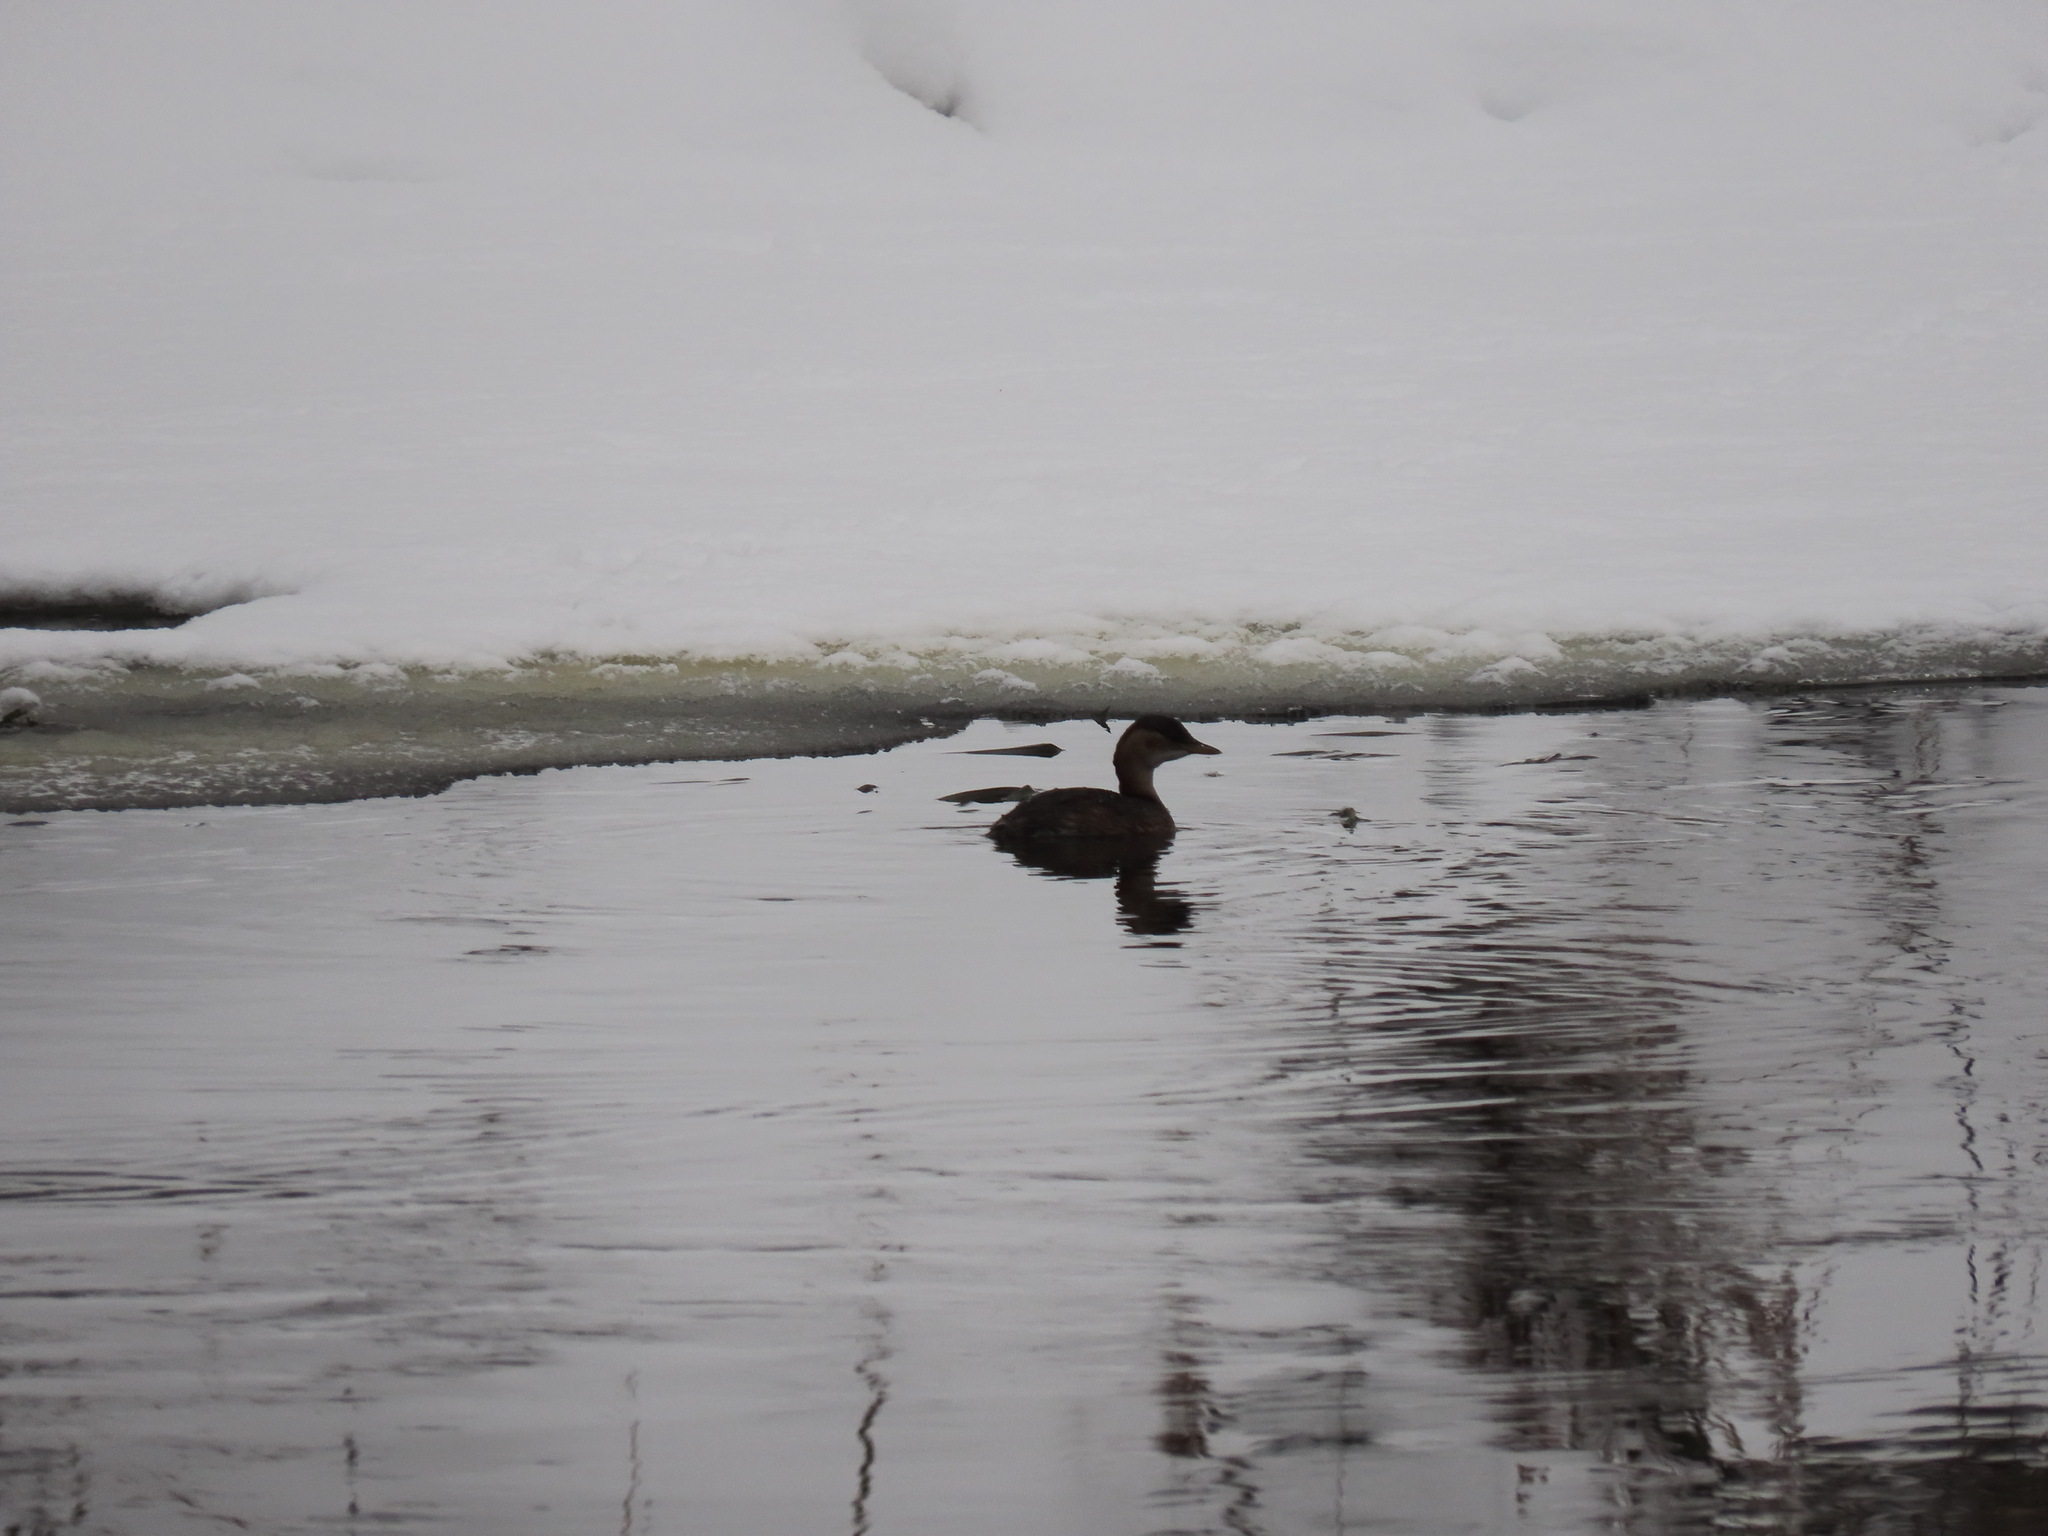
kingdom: Animalia
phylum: Chordata
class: Aves
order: Podicipediformes
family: Podicipedidae
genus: Tachybaptus
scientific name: Tachybaptus ruficollis
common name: Little grebe
